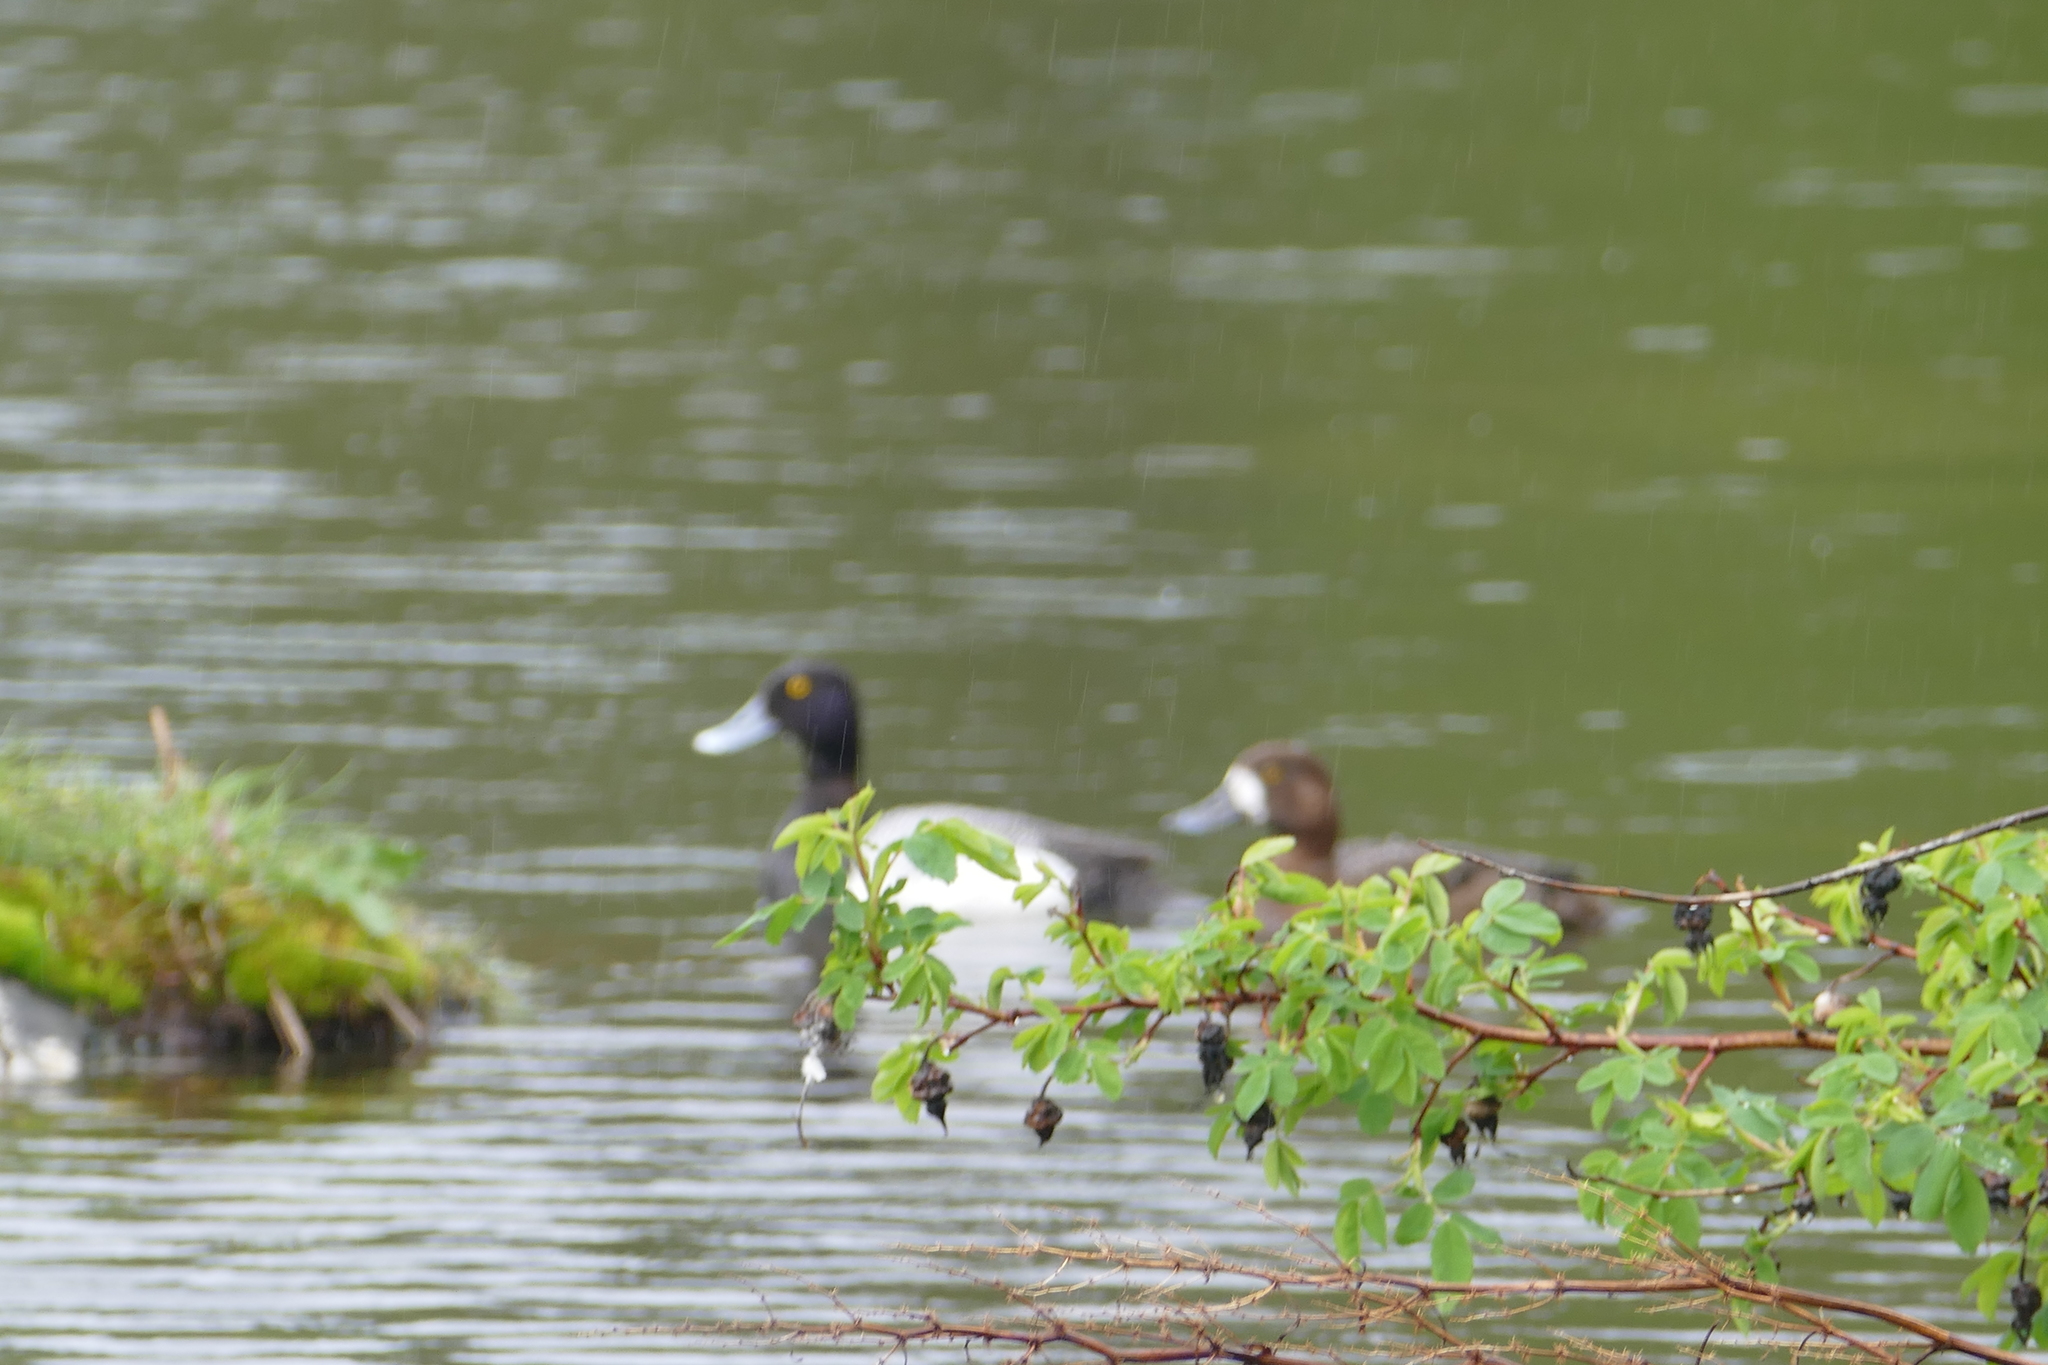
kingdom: Animalia
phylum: Chordata
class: Aves
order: Anseriformes
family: Anatidae
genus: Aythya
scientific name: Aythya marila
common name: Greater scaup
